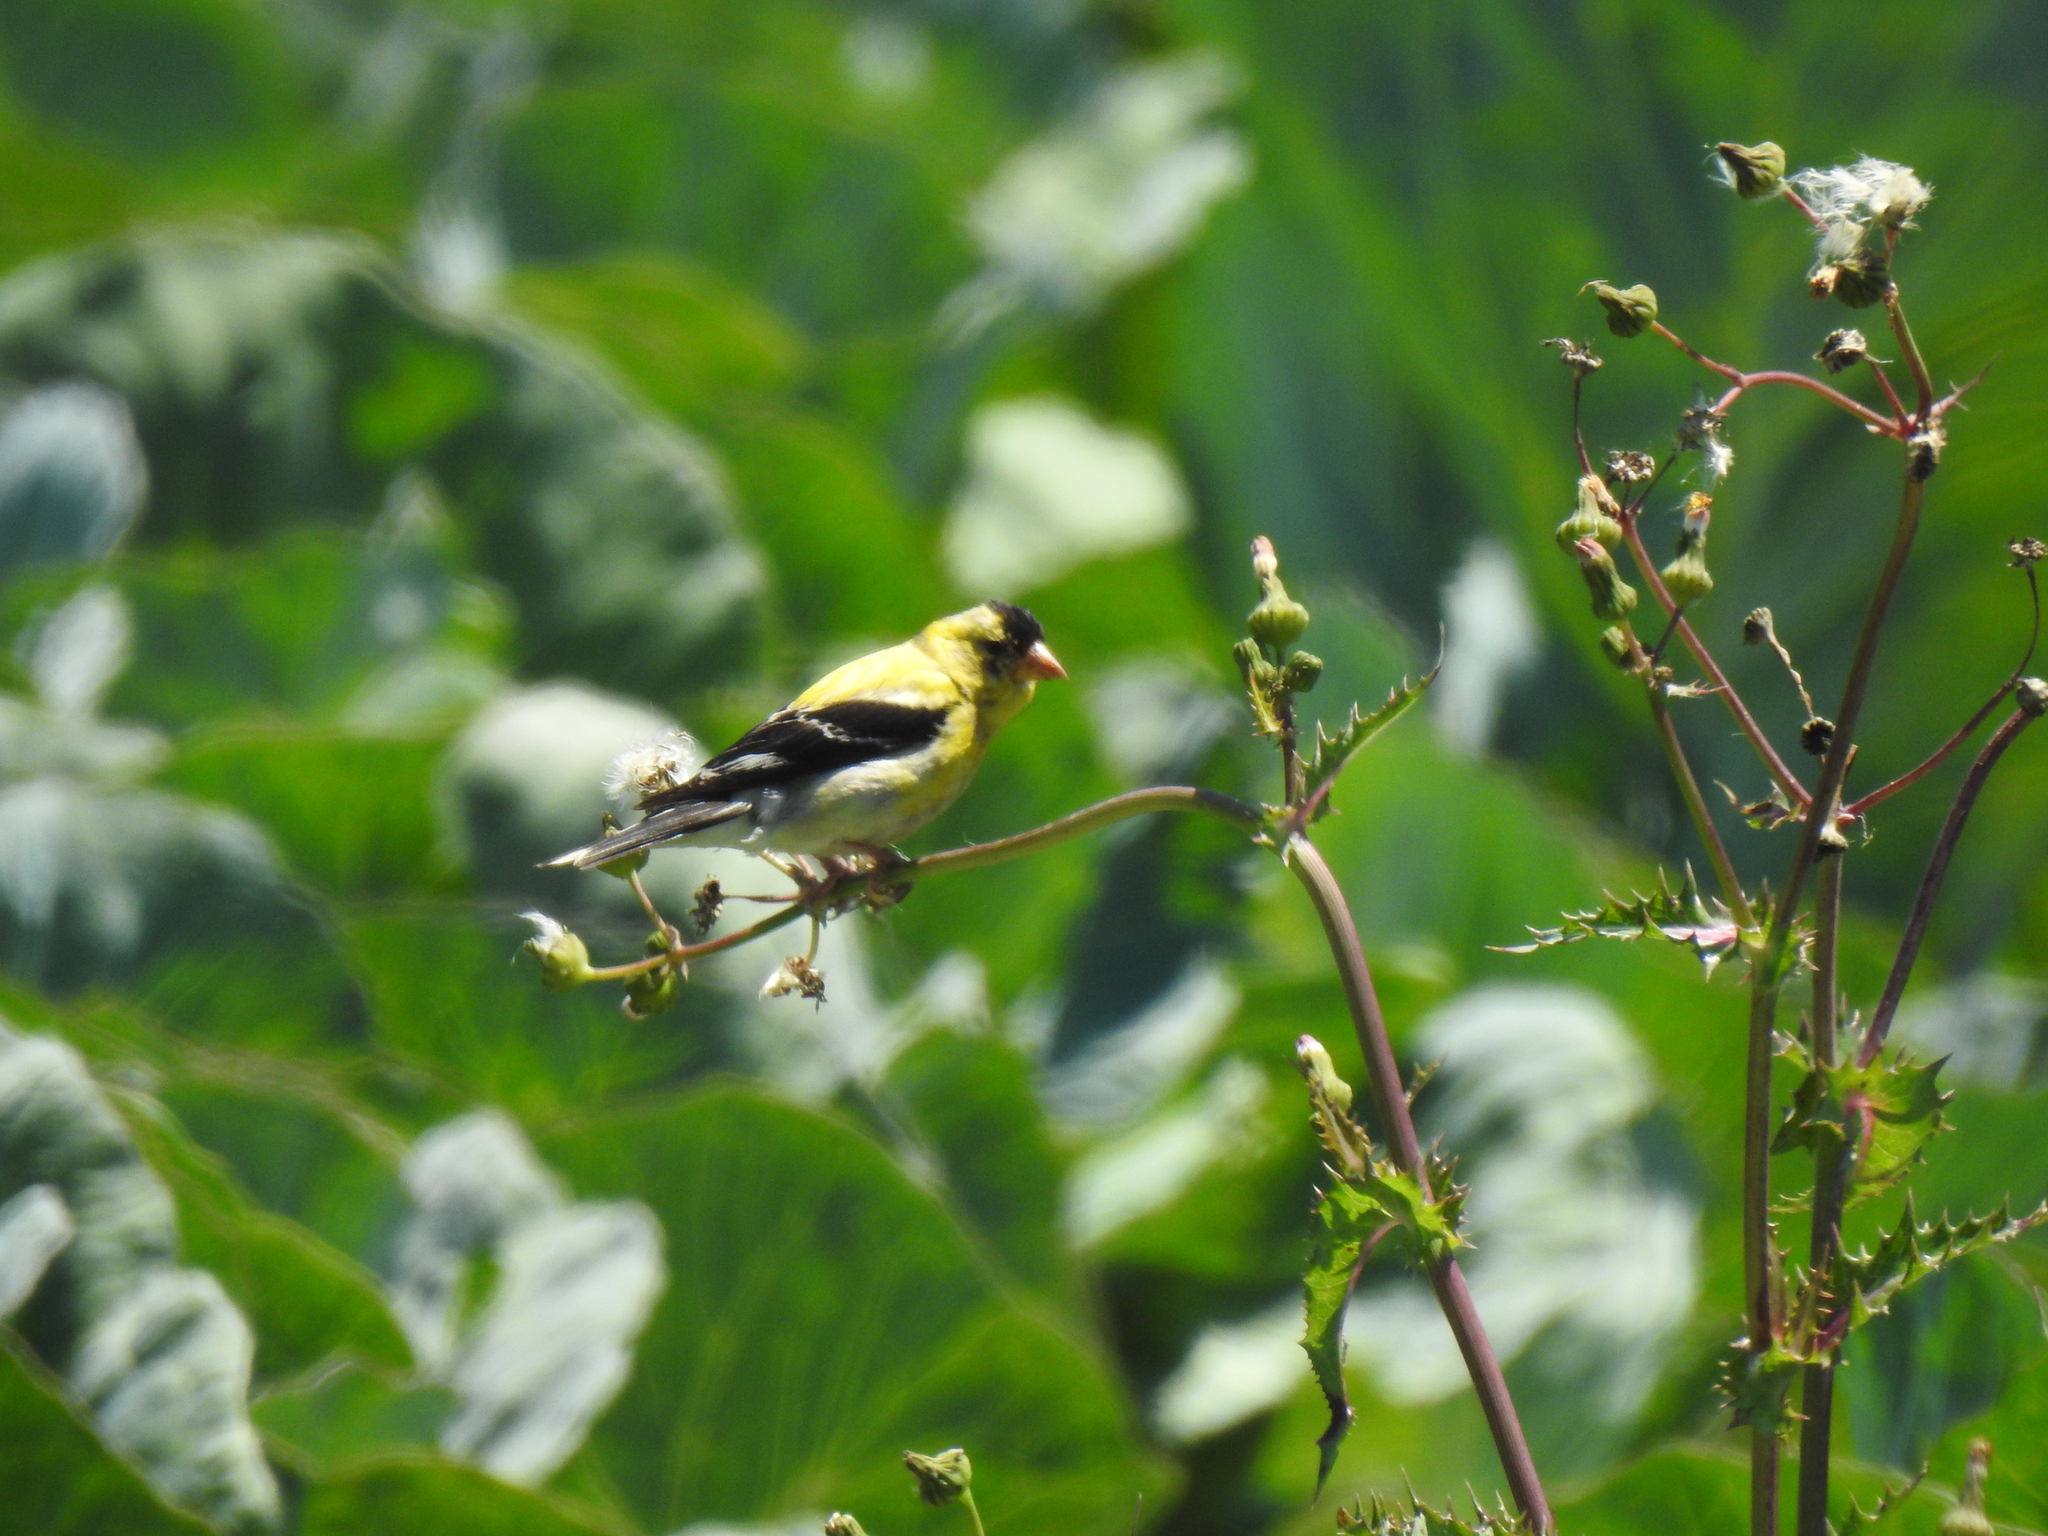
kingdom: Animalia
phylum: Chordata
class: Aves
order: Passeriformes
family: Fringillidae
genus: Spinus
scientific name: Spinus tristis
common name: American goldfinch
